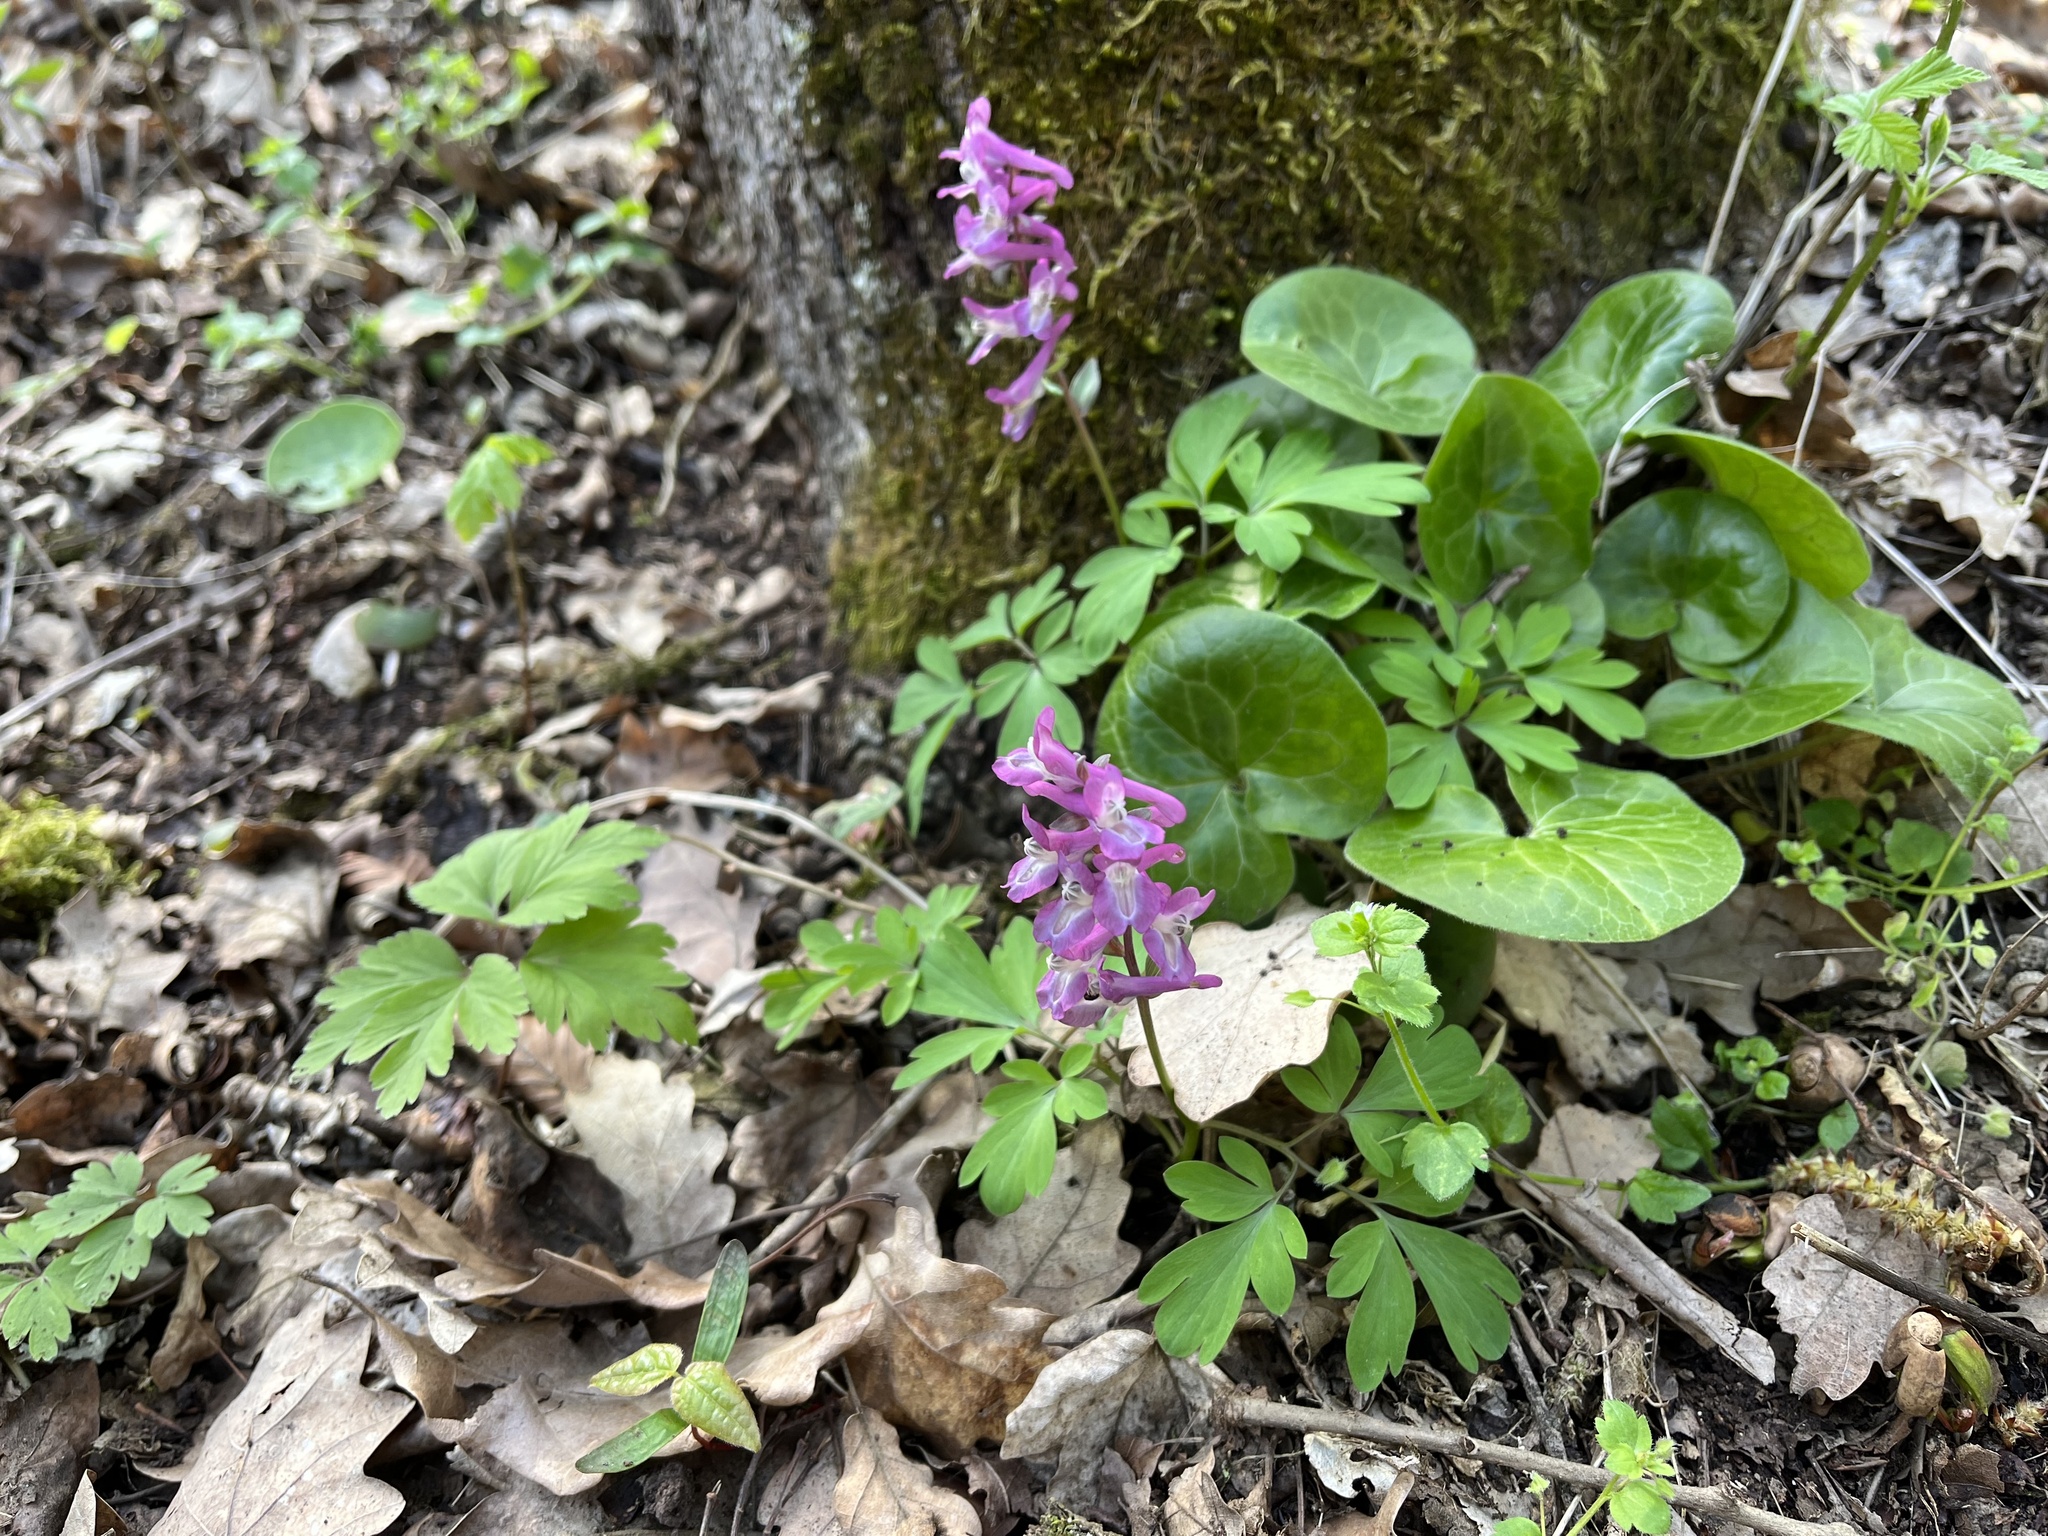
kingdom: Plantae
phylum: Tracheophyta
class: Magnoliopsida
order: Ranunculales
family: Papaveraceae
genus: Corydalis
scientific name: Corydalis cava
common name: Hollowroot
